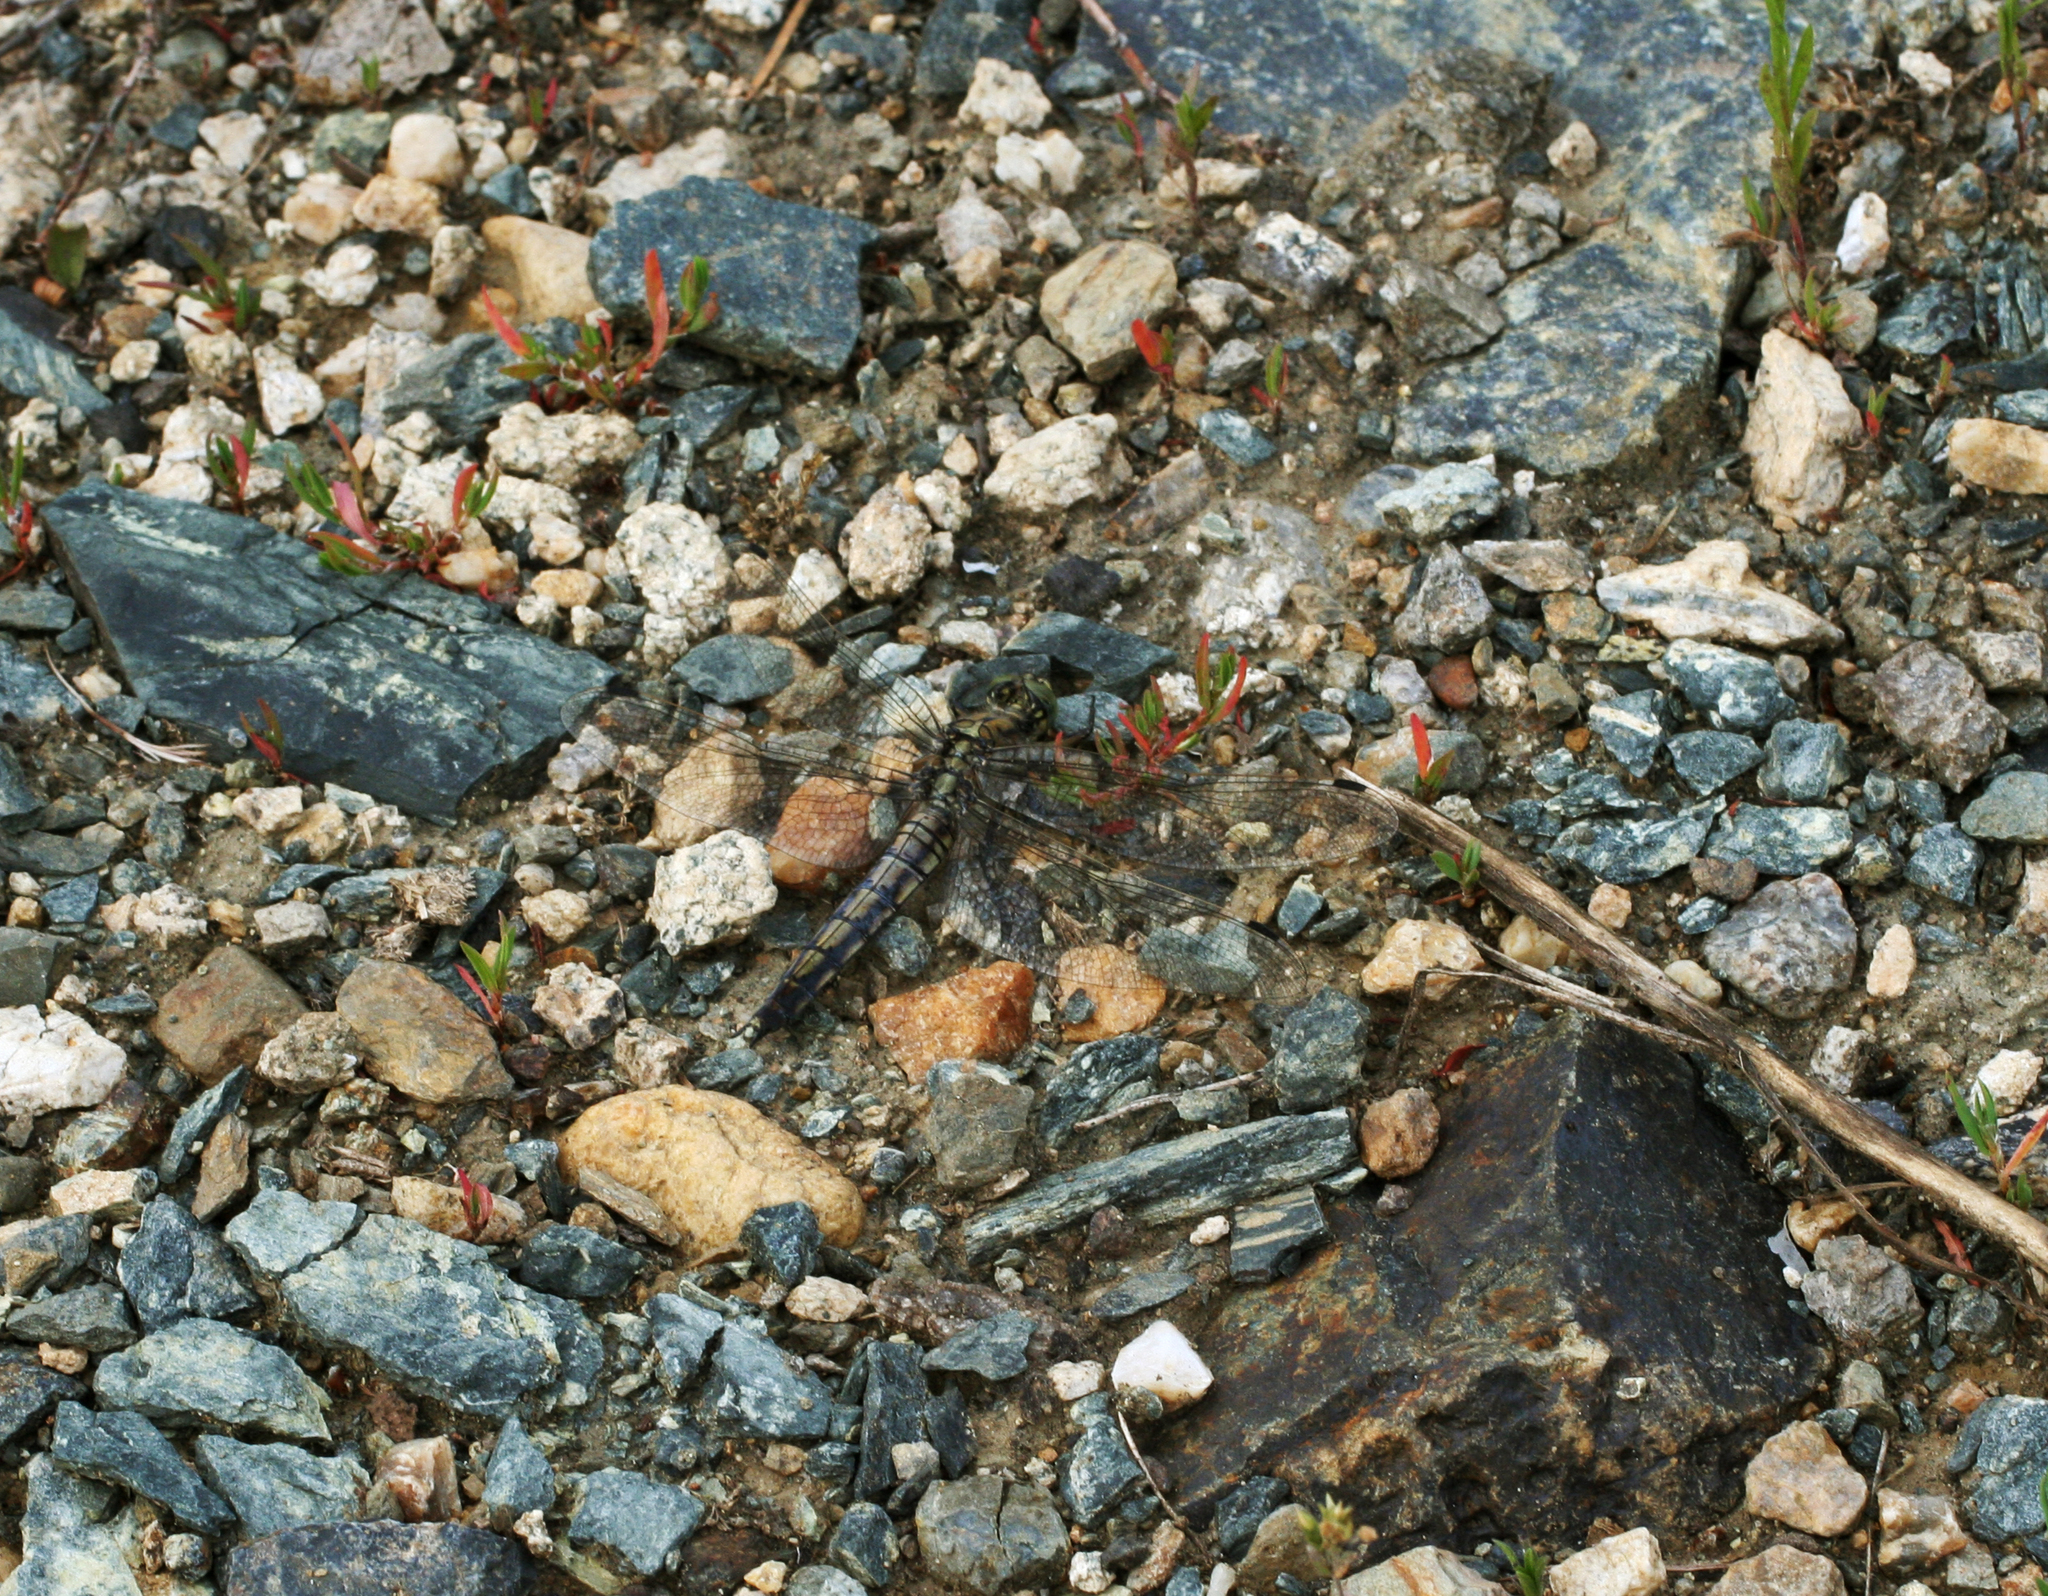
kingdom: Animalia
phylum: Arthropoda
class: Insecta
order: Odonata
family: Libellulidae
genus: Orthetrum
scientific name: Orthetrum cancellatum
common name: Black-tailed skimmer
